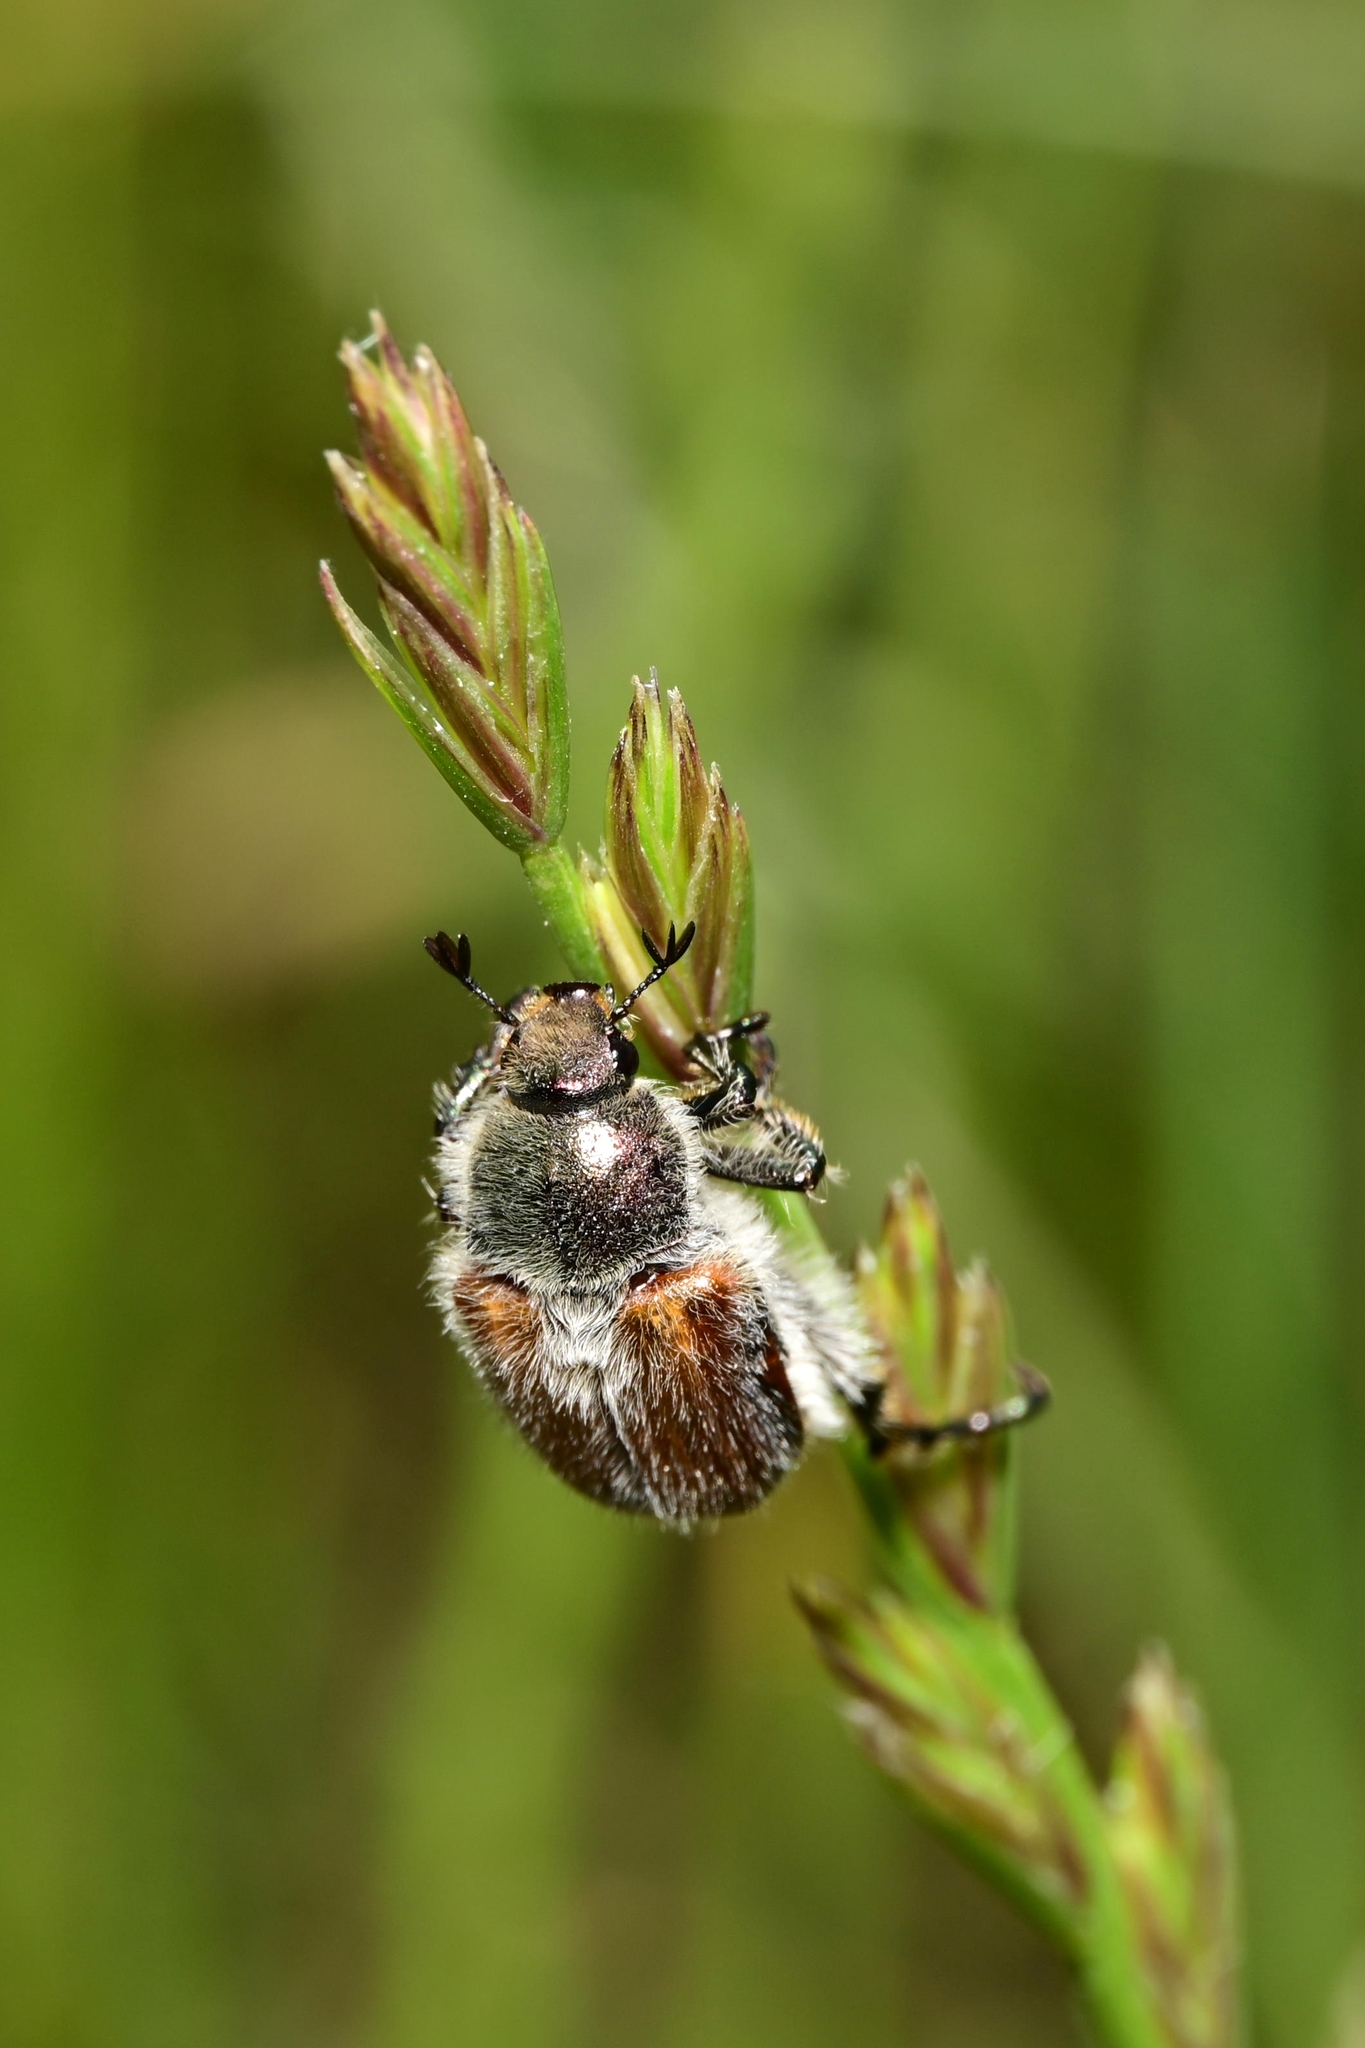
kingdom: Animalia
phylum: Arthropoda
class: Insecta
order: Coleoptera
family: Scarabaeidae
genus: Chaetopteroplia
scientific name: Chaetopteroplia segetum
